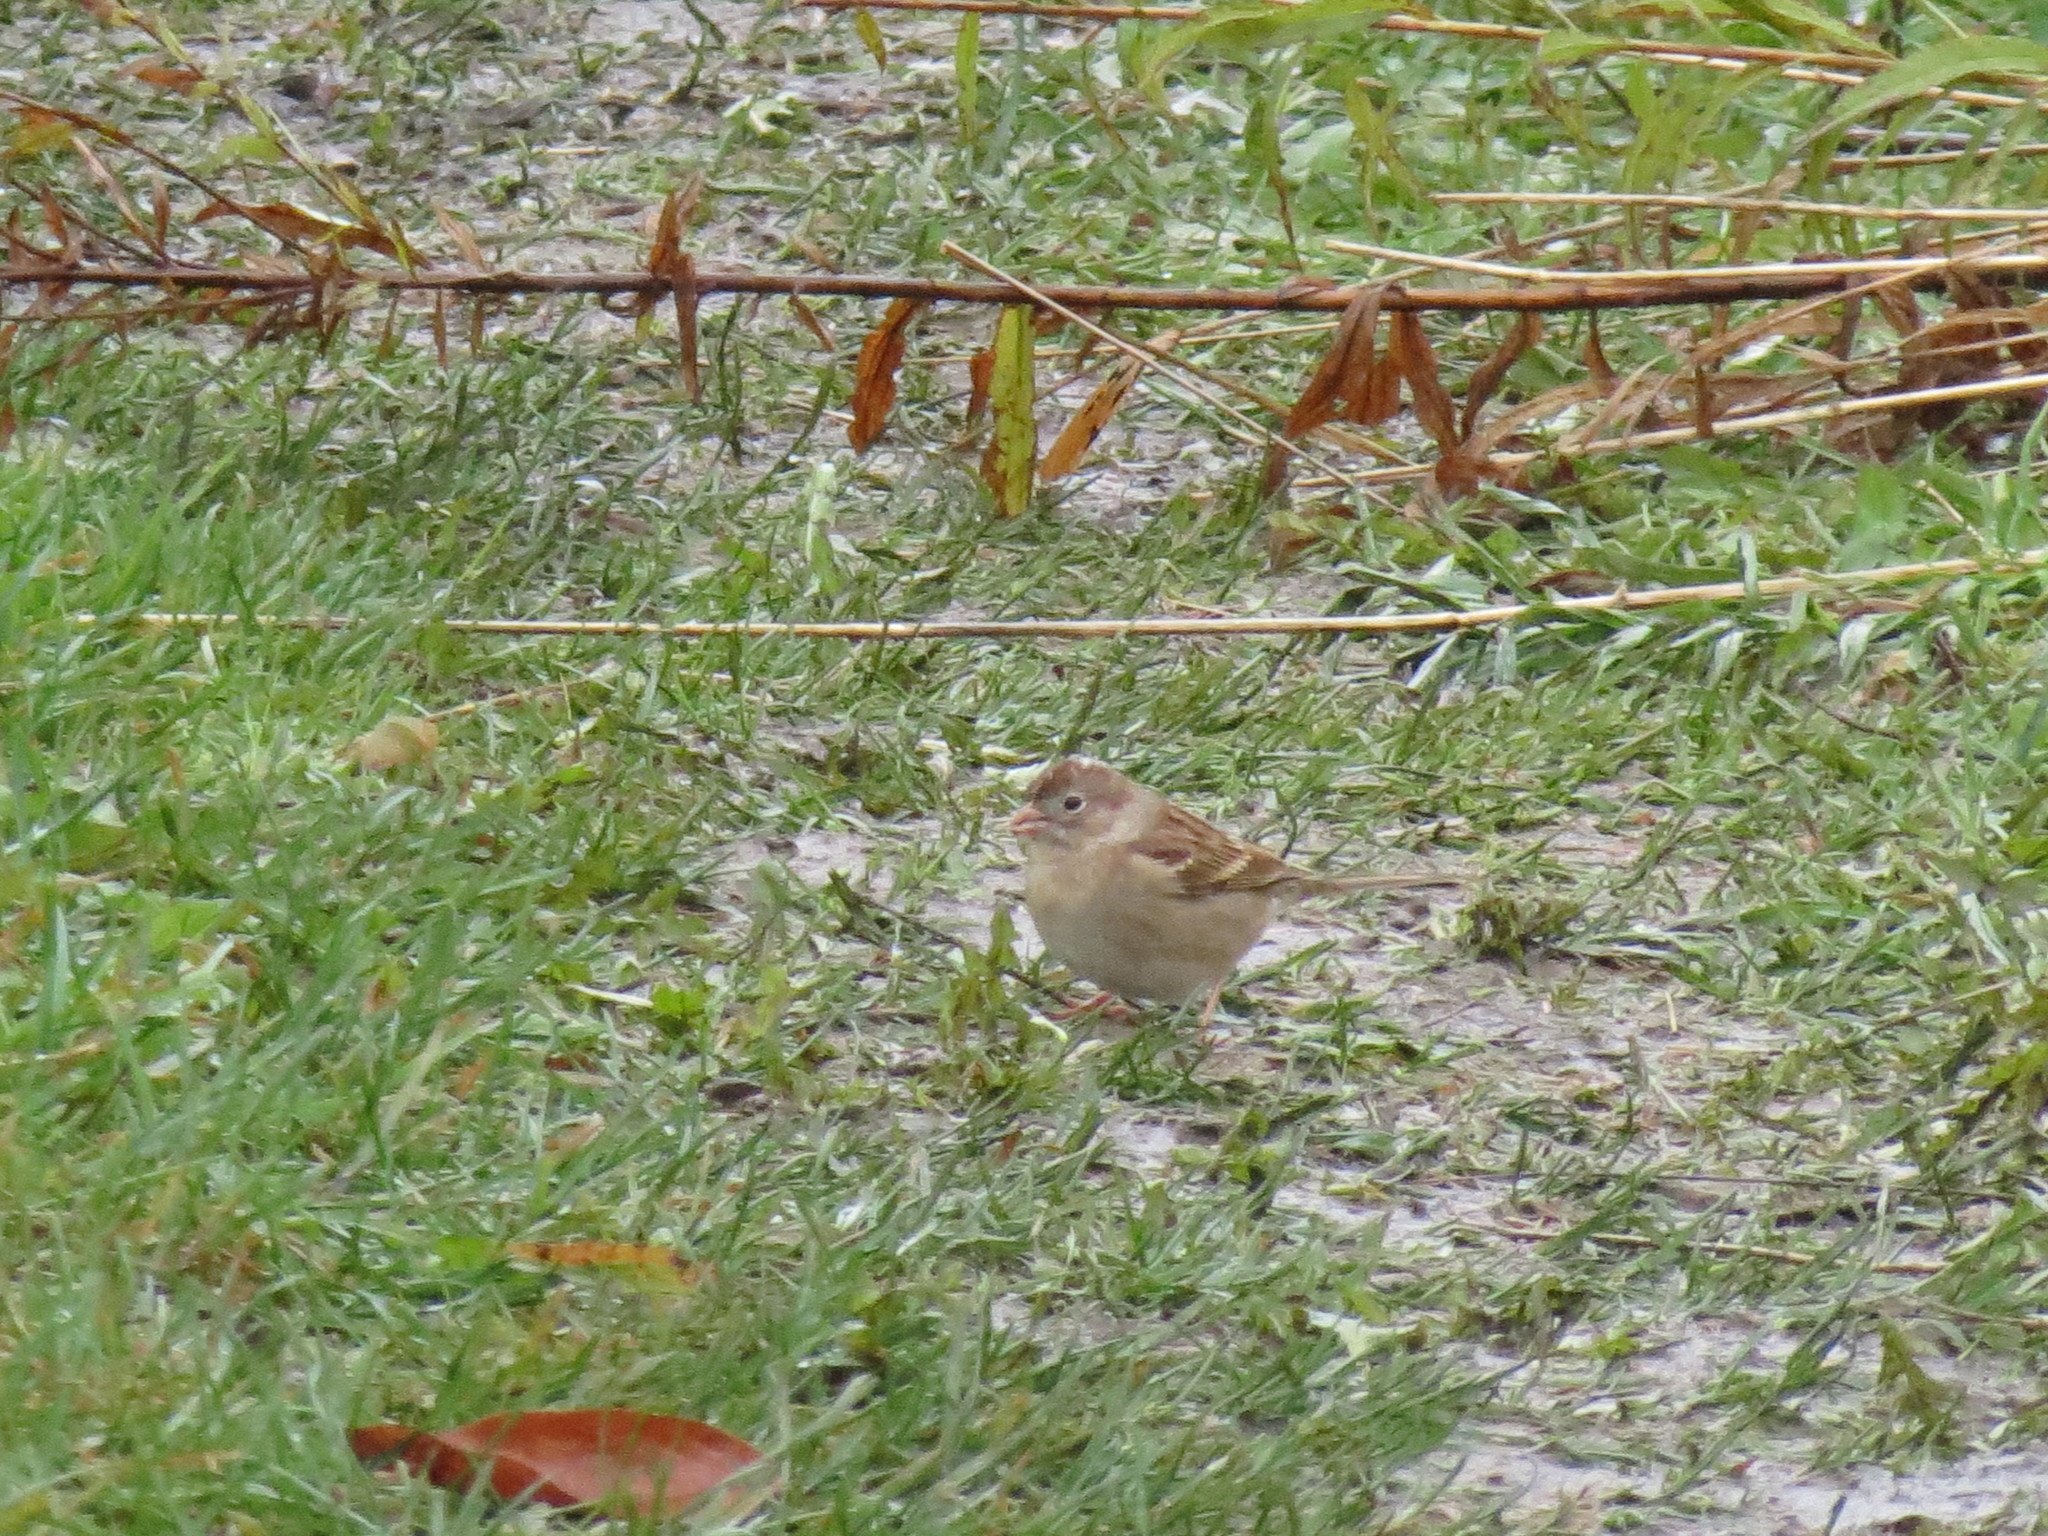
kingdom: Animalia
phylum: Chordata
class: Aves
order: Passeriformes
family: Passerellidae
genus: Spizella
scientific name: Spizella pusilla
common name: Field sparrow
